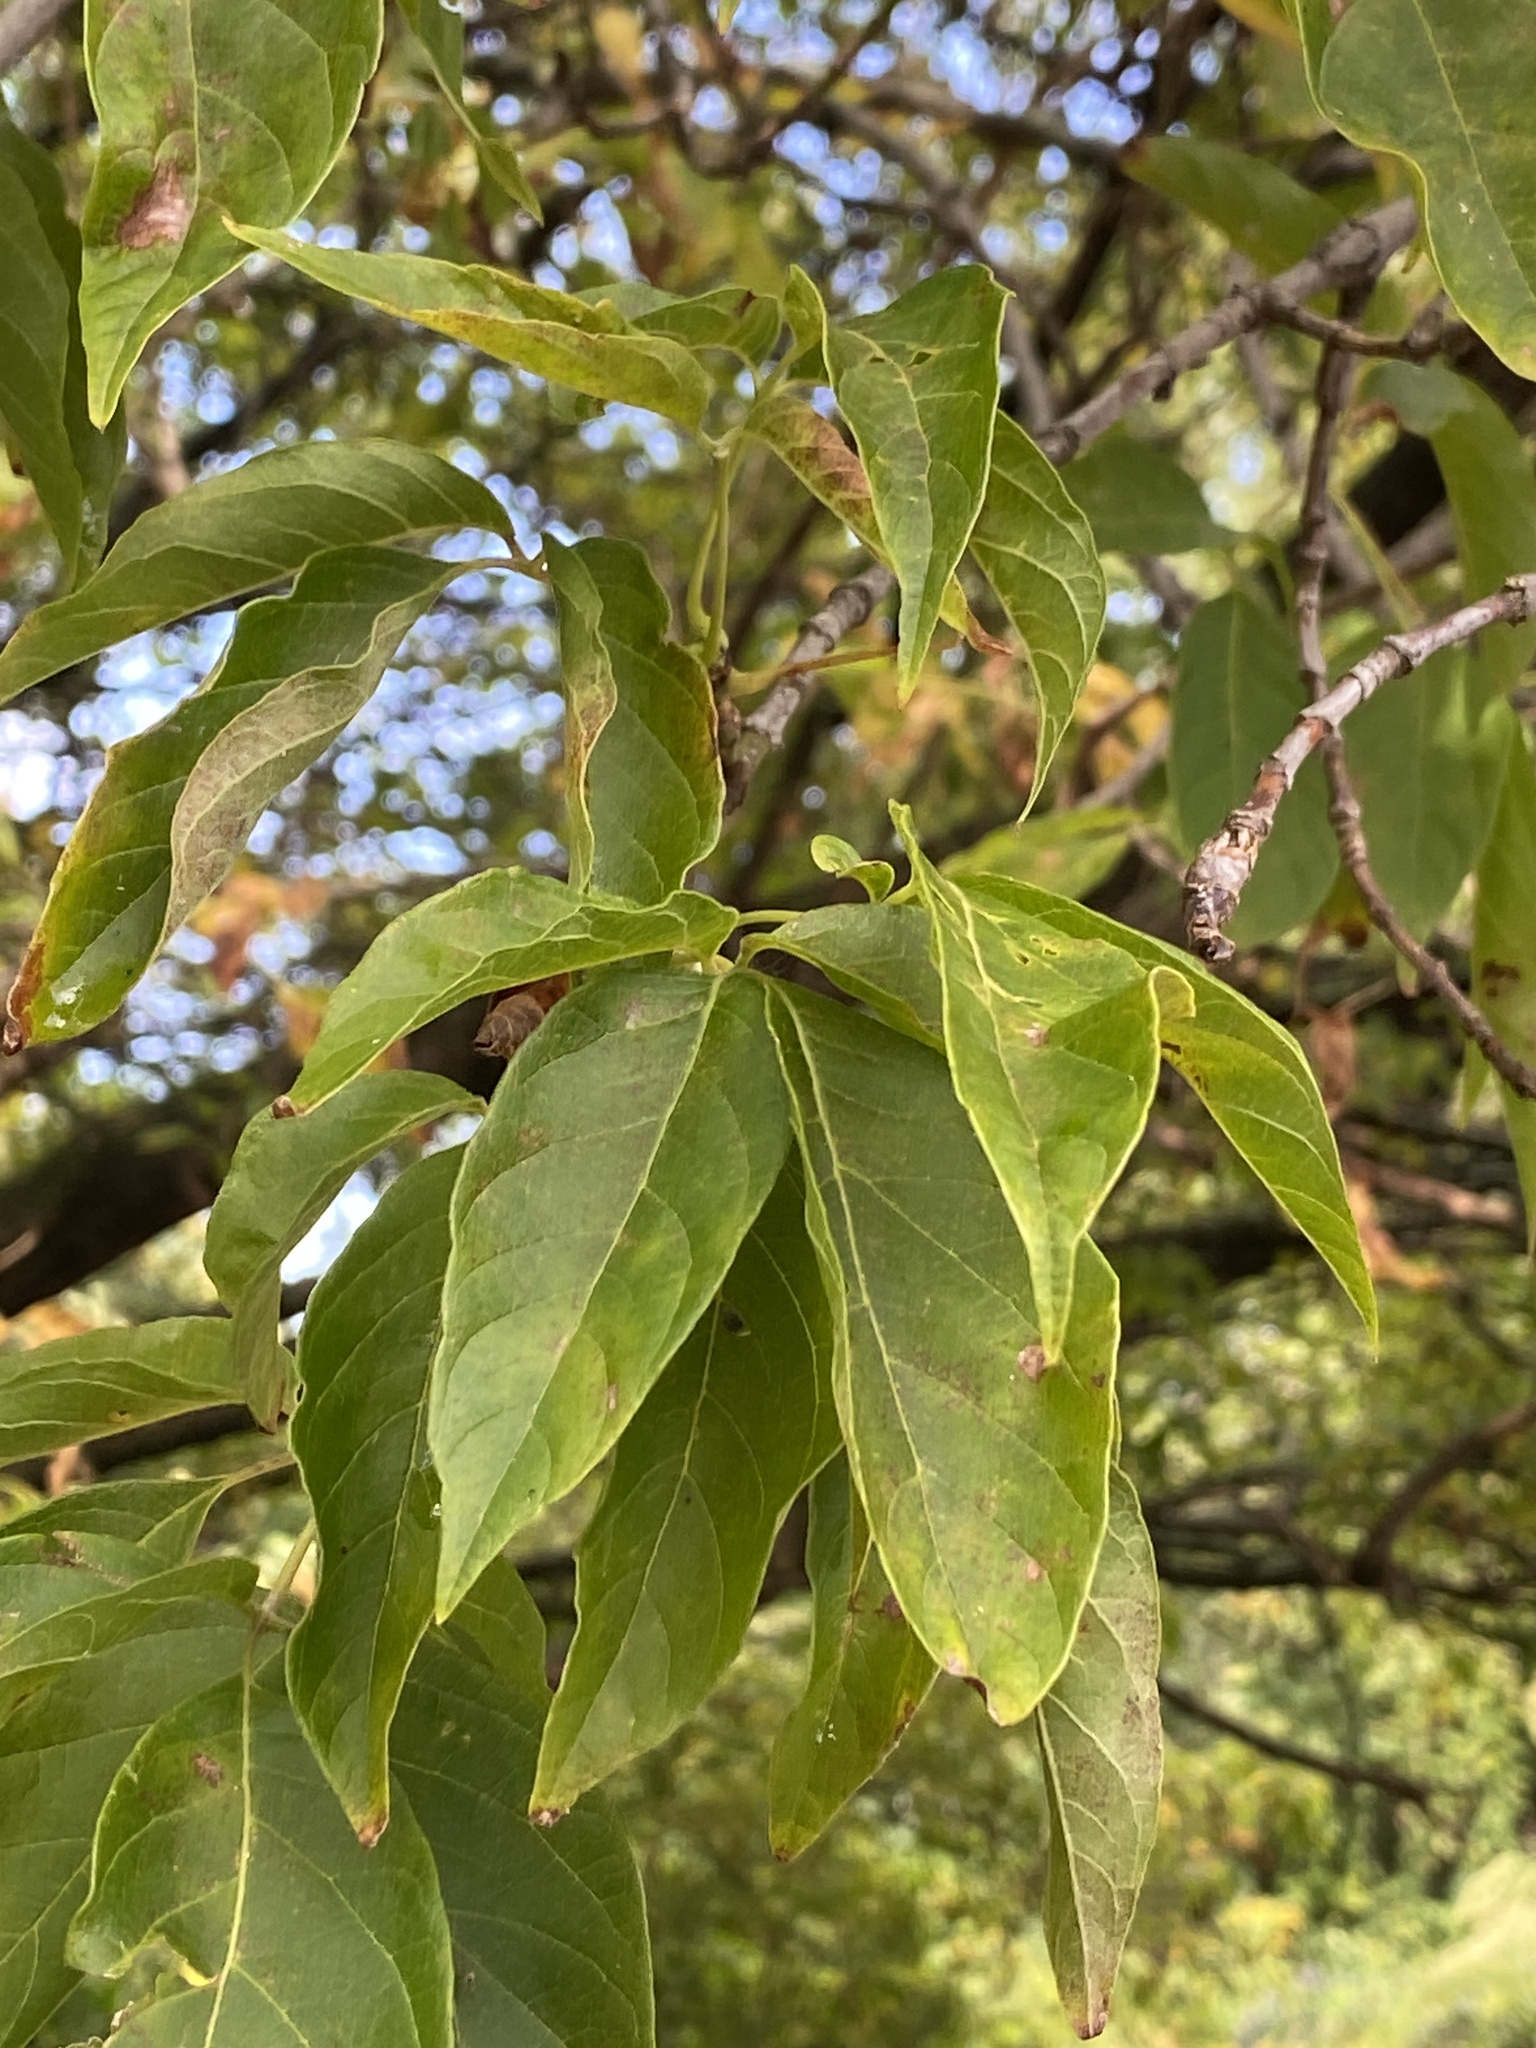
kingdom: Plantae
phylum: Tracheophyta
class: Magnoliopsida
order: Sapindales
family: Sapindaceae
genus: Acer
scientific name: Acer negundo
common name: Ashleaf maple
